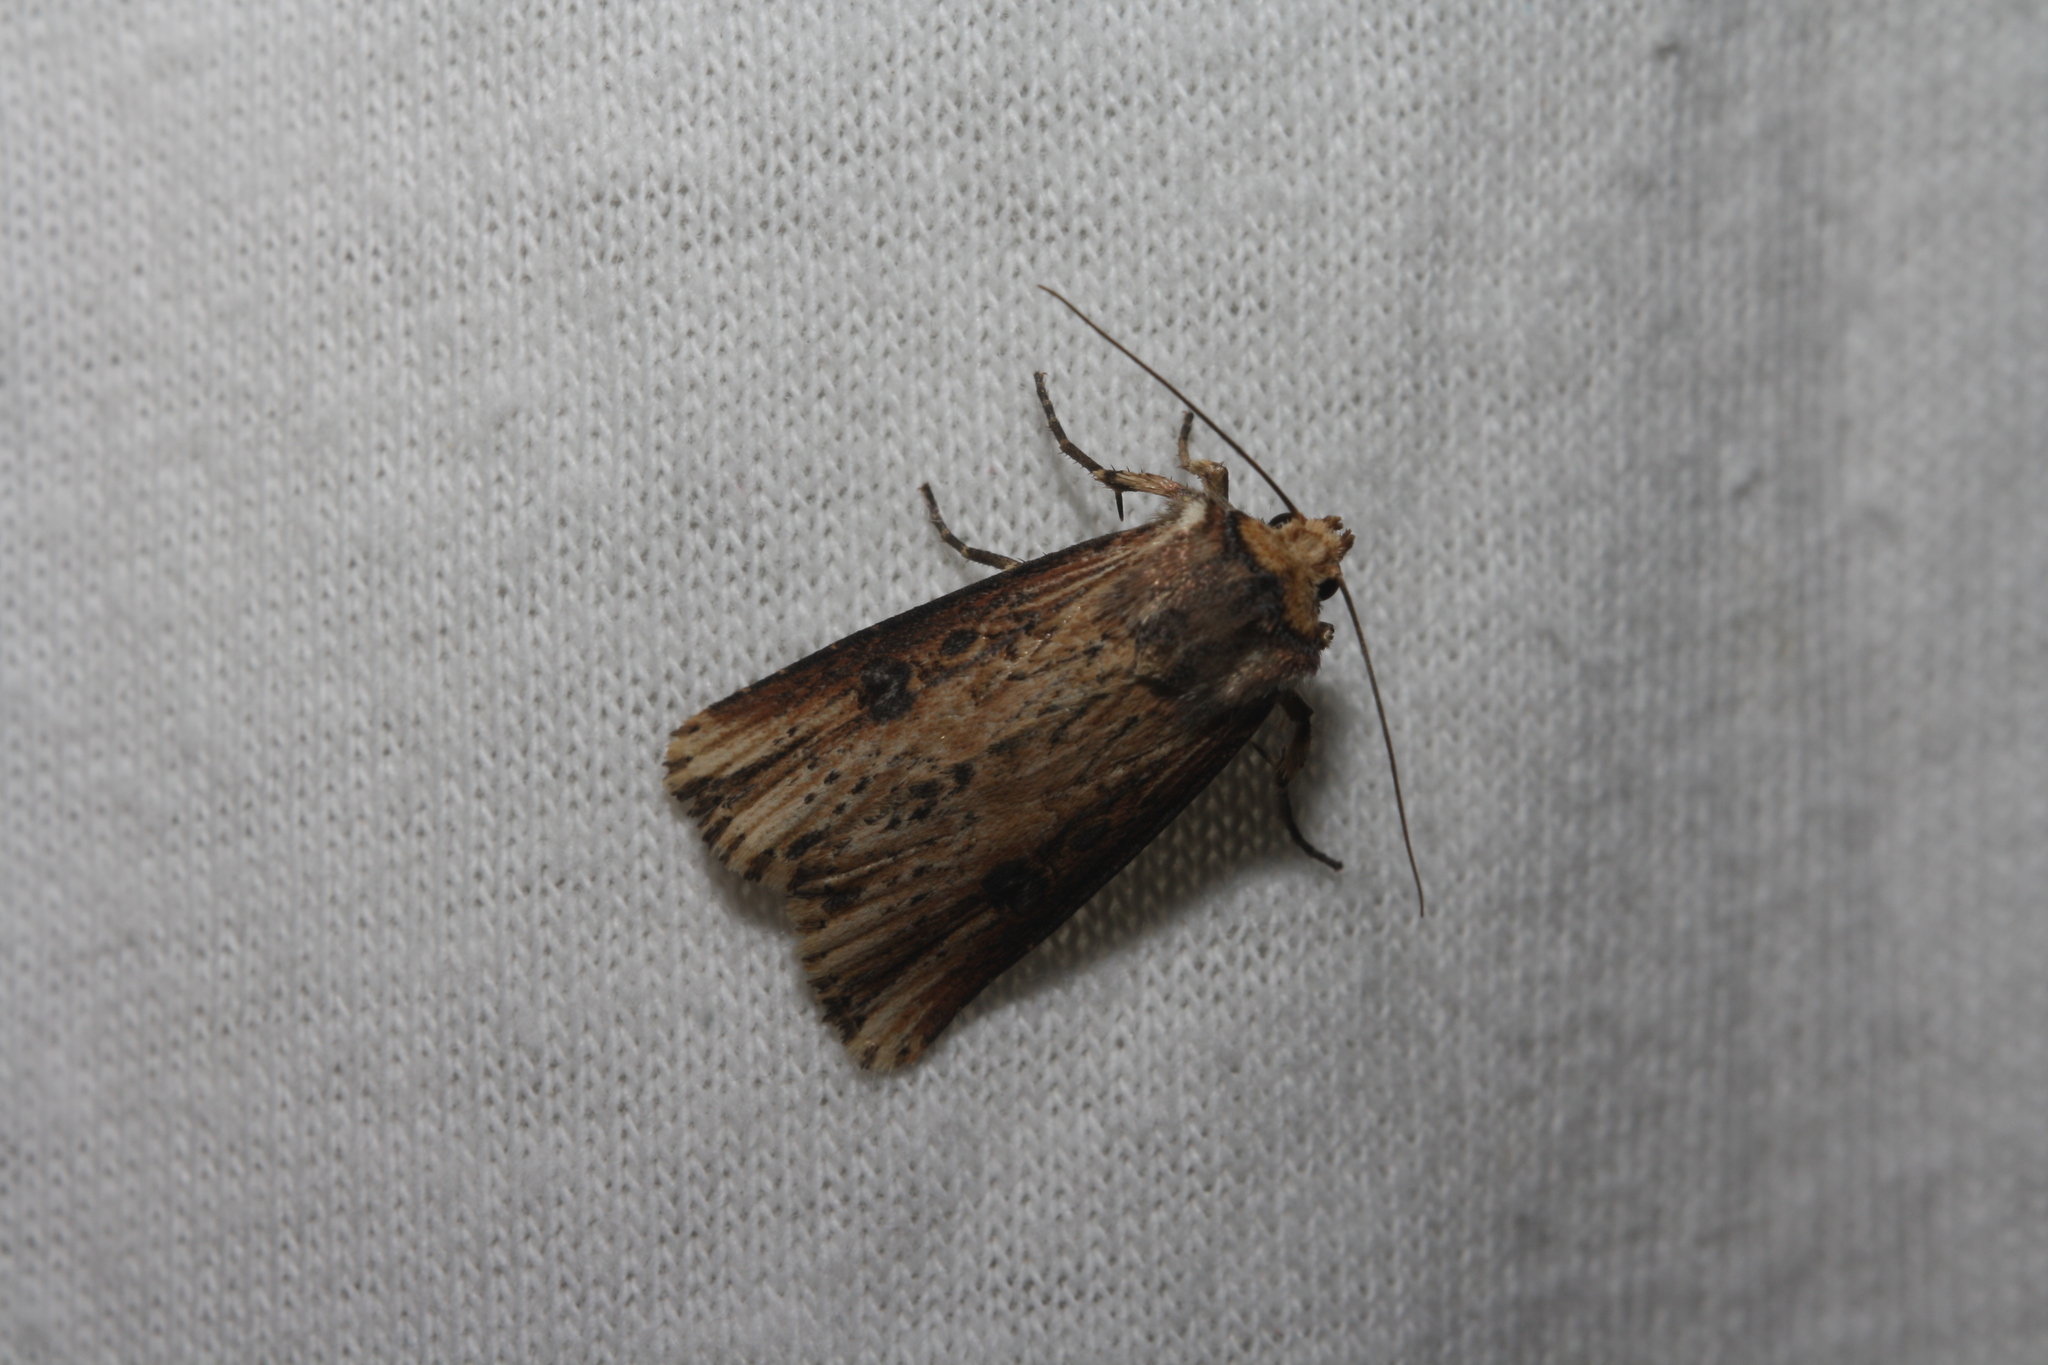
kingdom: Animalia
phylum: Arthropoda
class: Insecta
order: Lepidoptera
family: Noctuidae
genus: Axylia
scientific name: Axylia putris
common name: Flame
